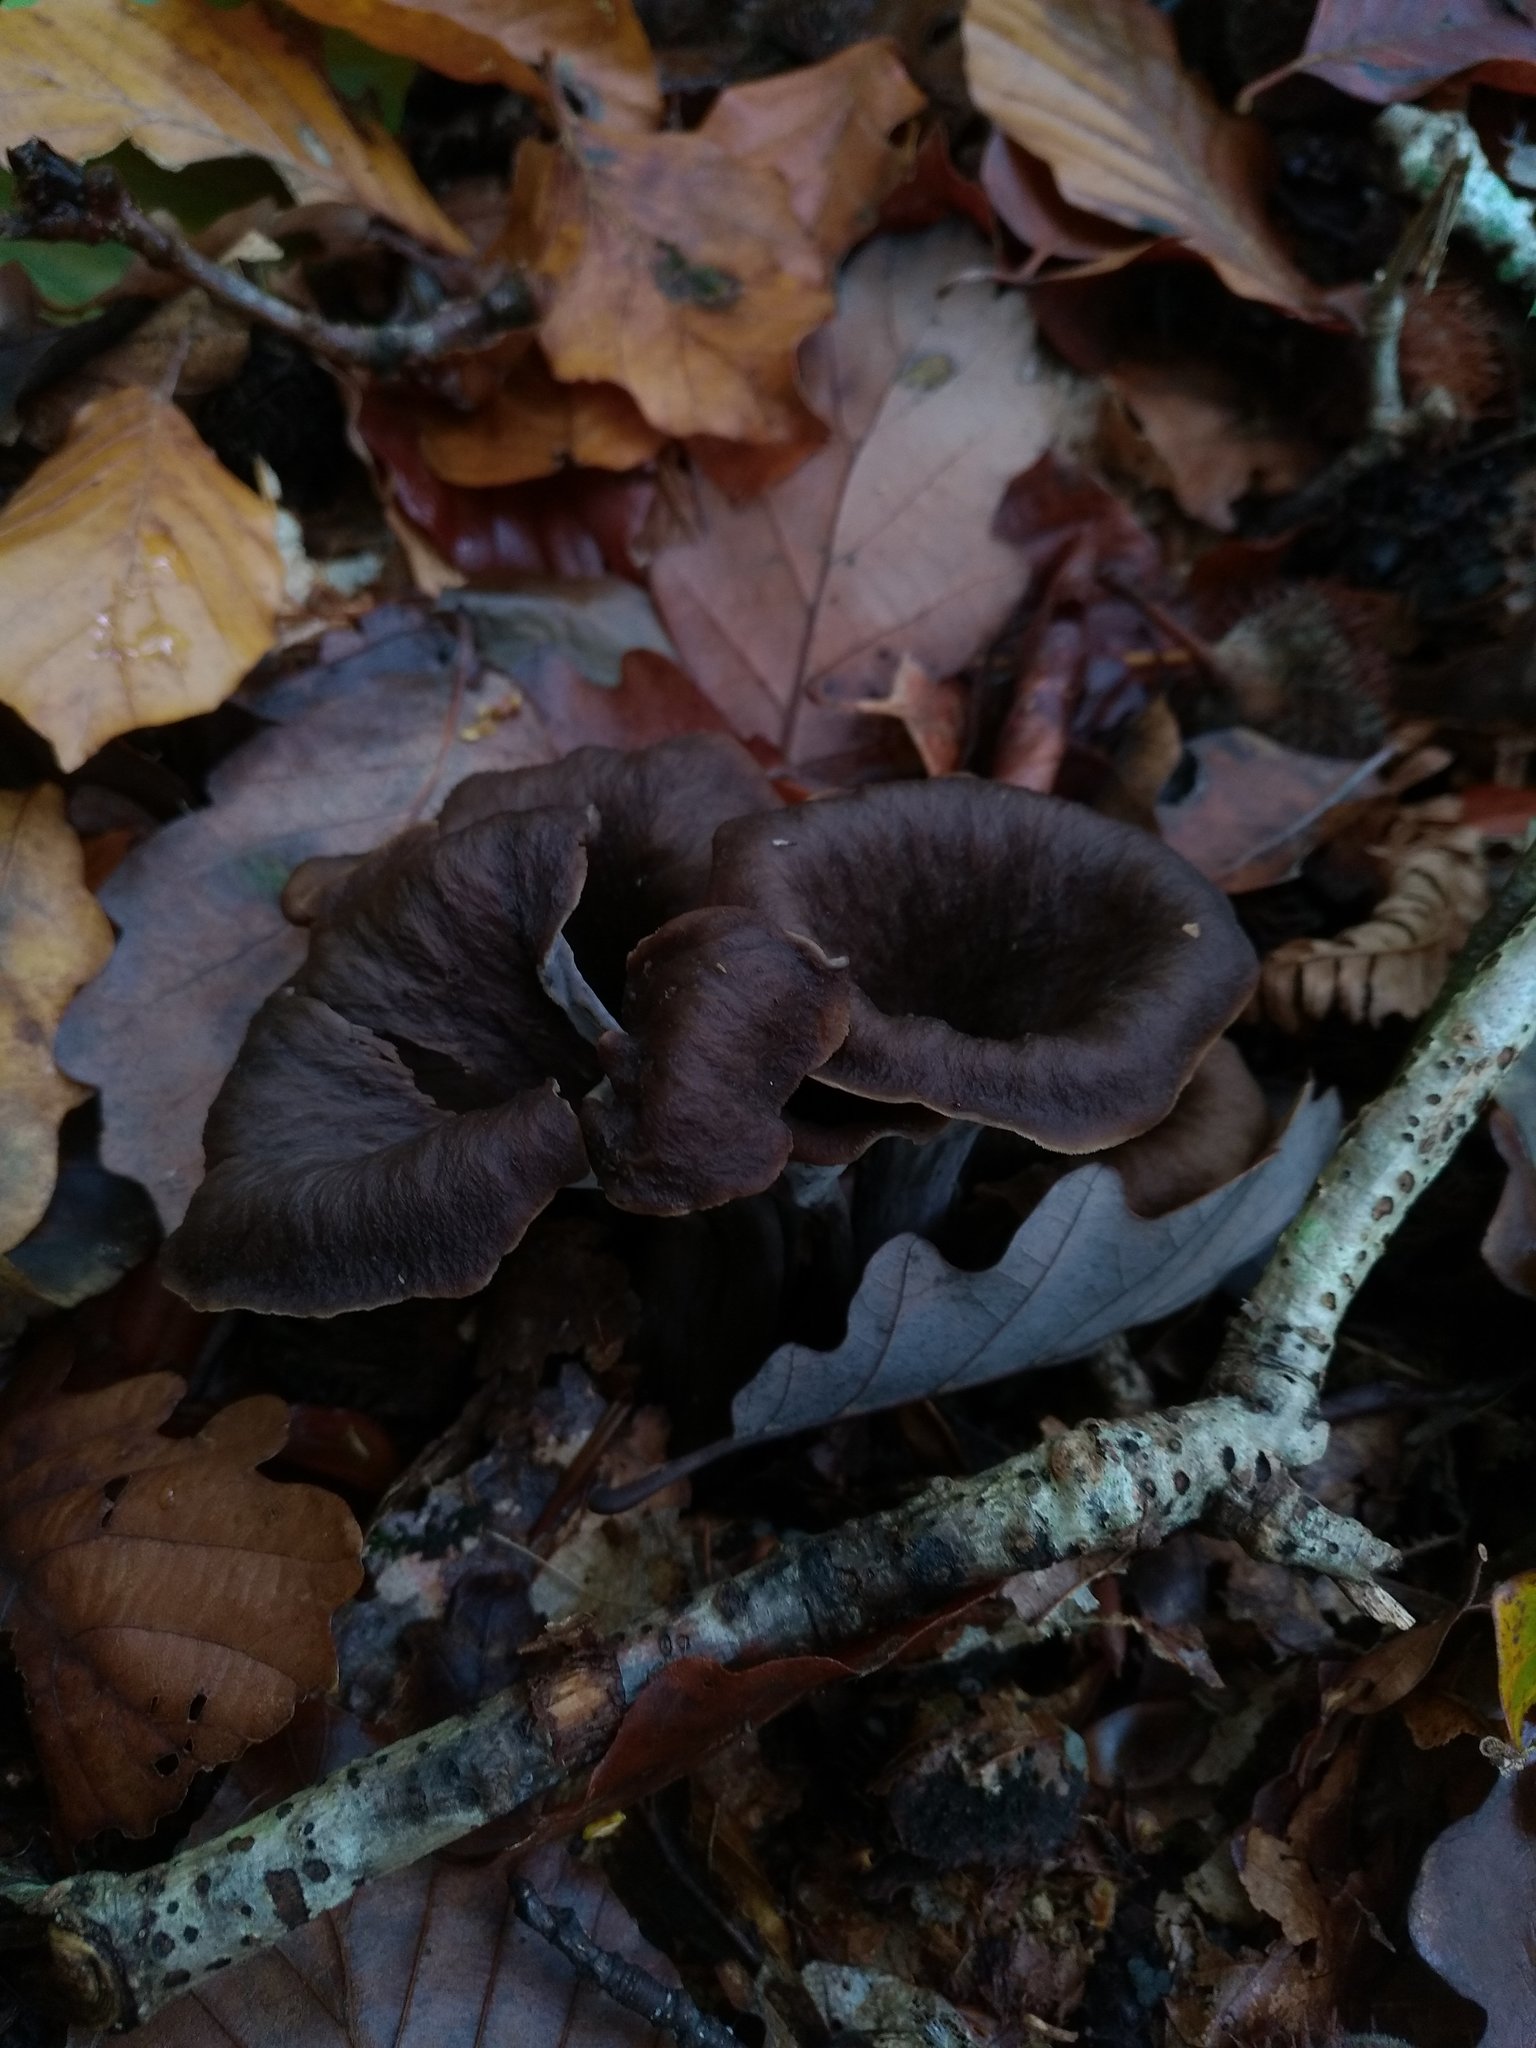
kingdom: Fungi
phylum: Basidiomycota
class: Agaricomycetes
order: Cantharellales
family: Hydnaceae
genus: Craterellus
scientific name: Craterellus cornucopioides
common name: Horn of plenty
